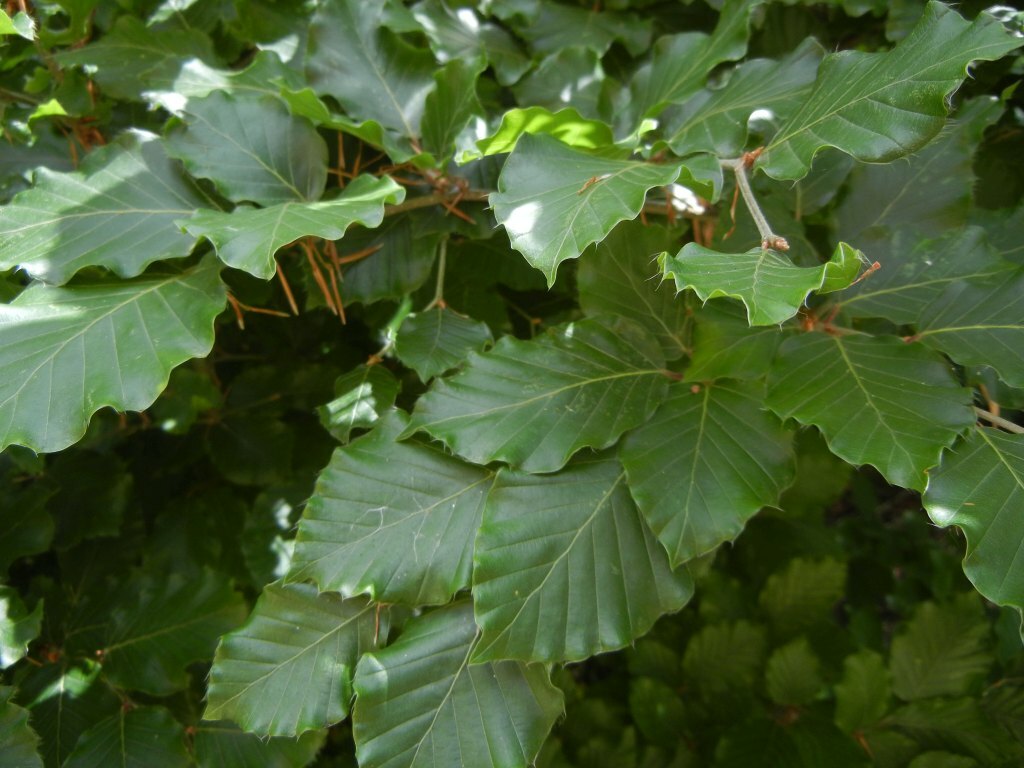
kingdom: Plantae
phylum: Tracheophyta
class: Magnoliopsida
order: Fagales
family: Fagaceae
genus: Fagus
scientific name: Fagus sylvatica
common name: Beech
